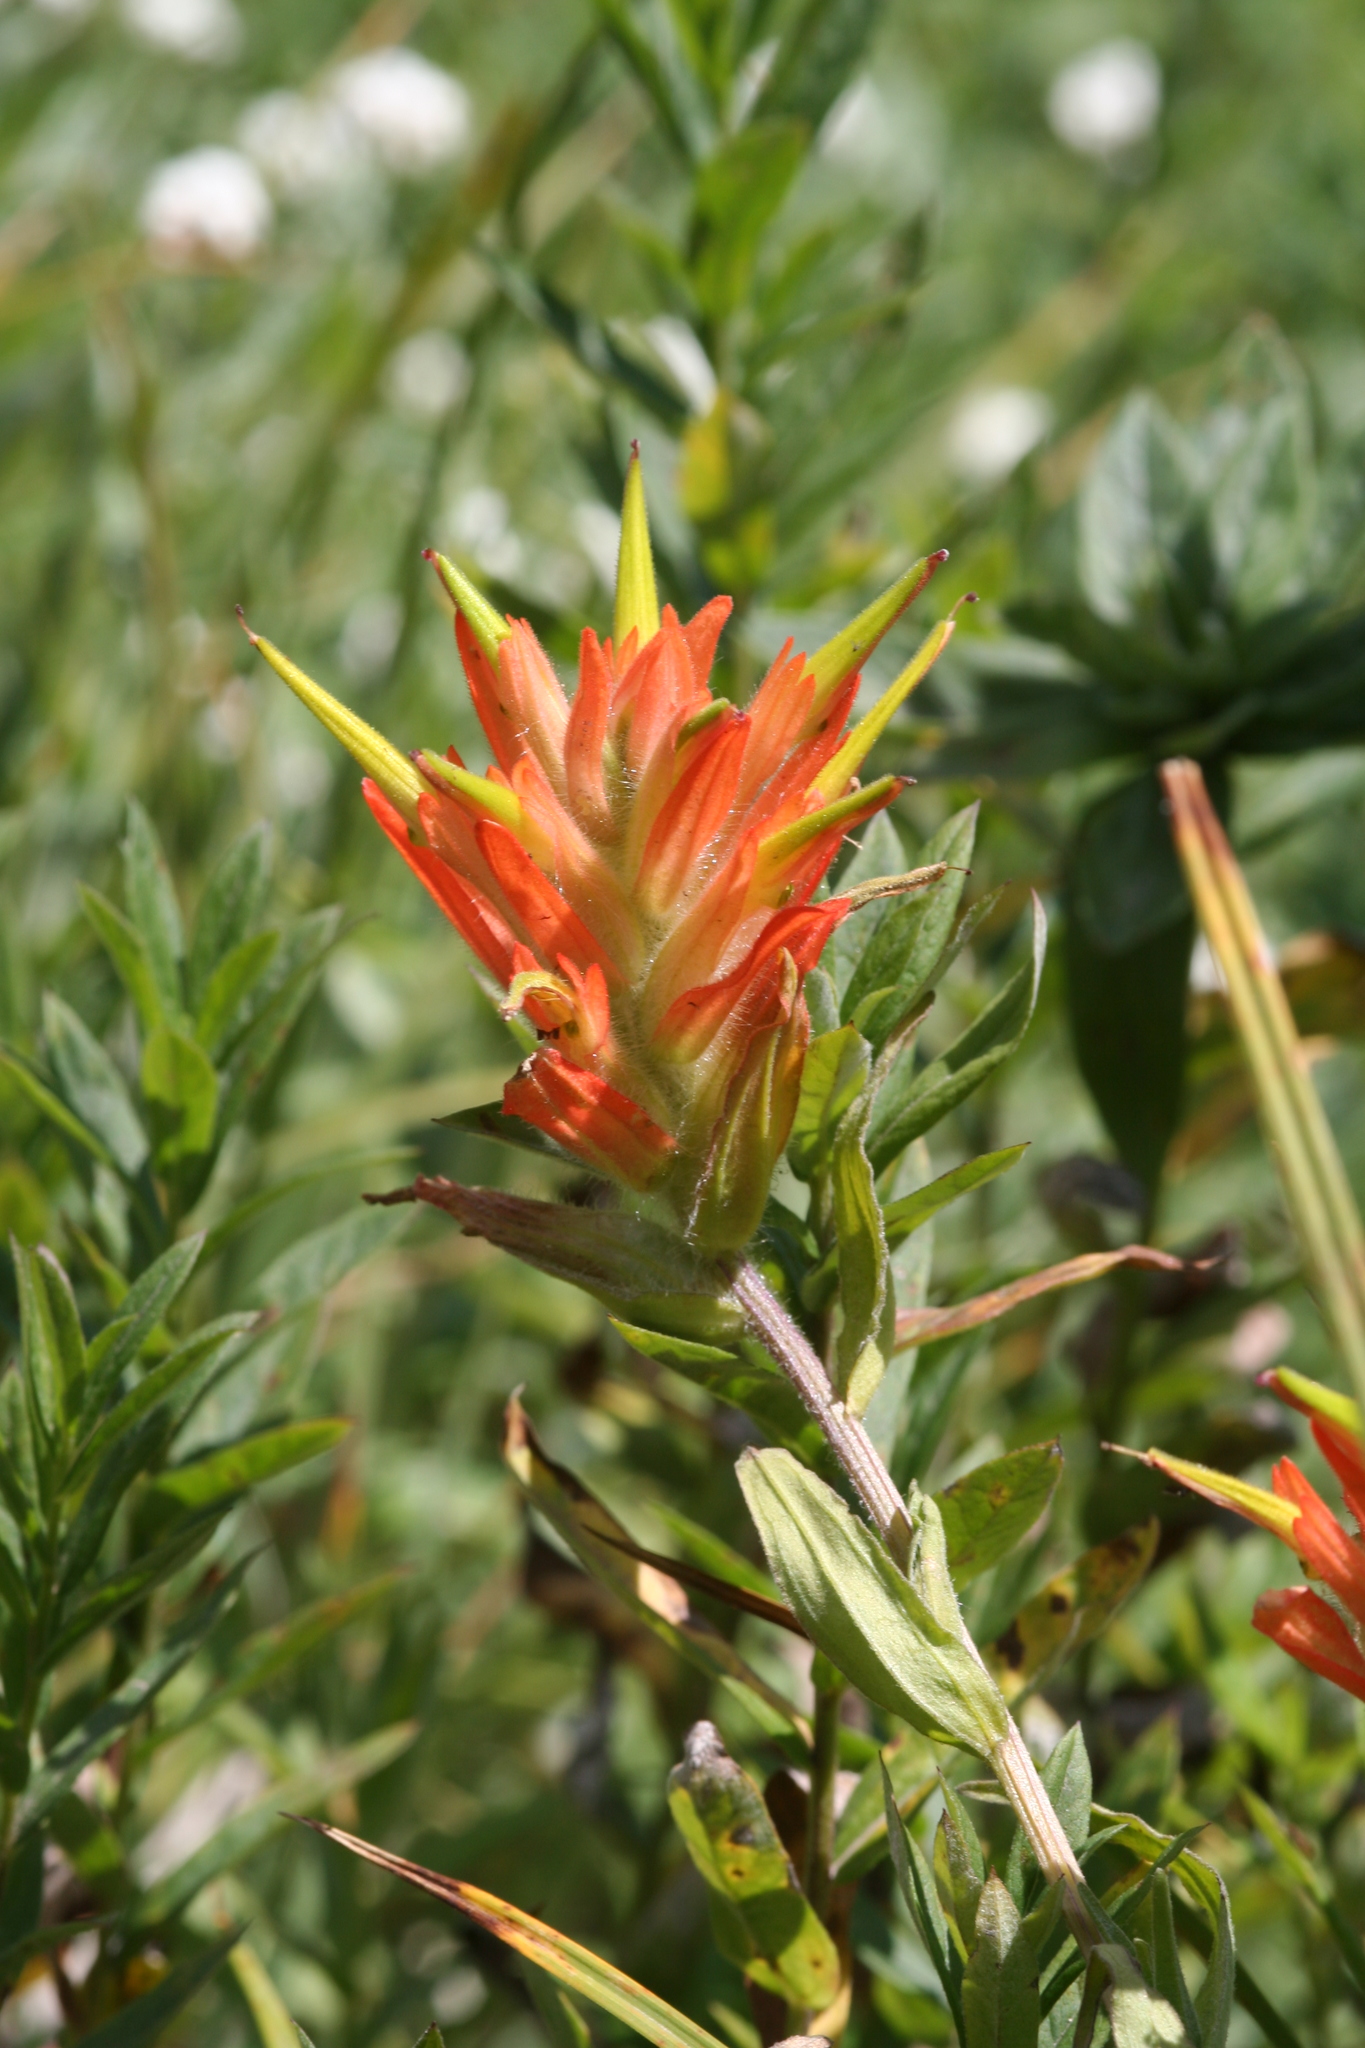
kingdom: Plantae
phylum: Tracheophyta
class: Magnoliopsida
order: Lamiales
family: Orobanchaceae
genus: Castilleja
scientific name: Castilleja miniata
